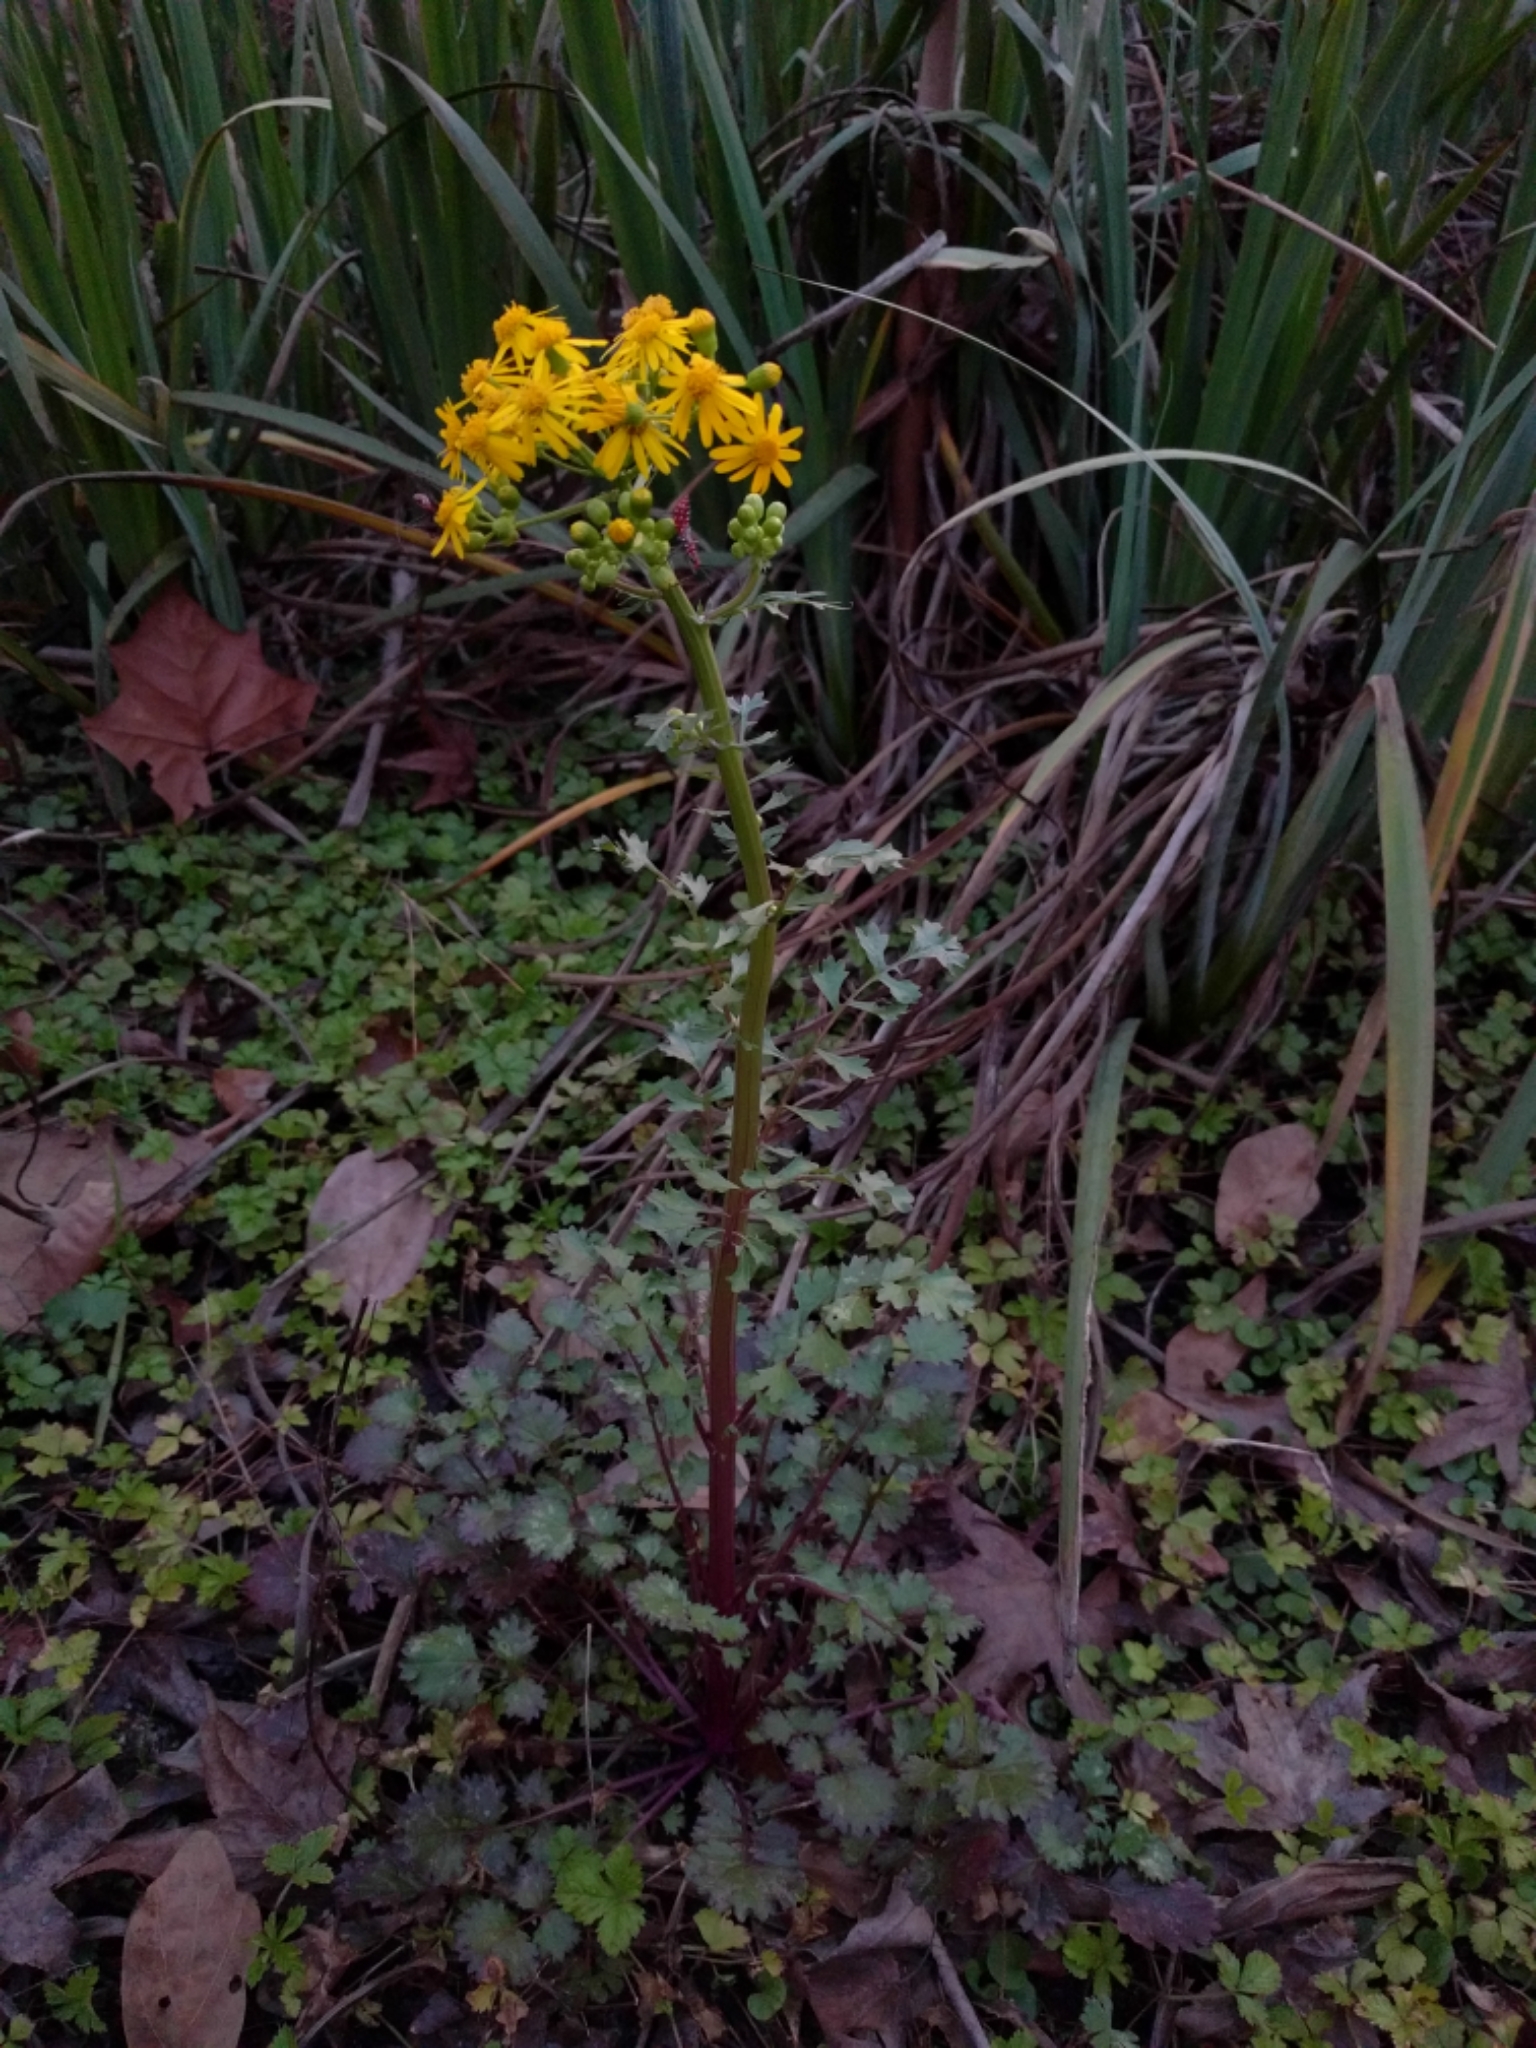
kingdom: Plantae
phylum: Tracheophyta
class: Magnoliopsida
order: Asterales
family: Asteraceae
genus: Packera
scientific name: Packera glabella
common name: Butterweed
